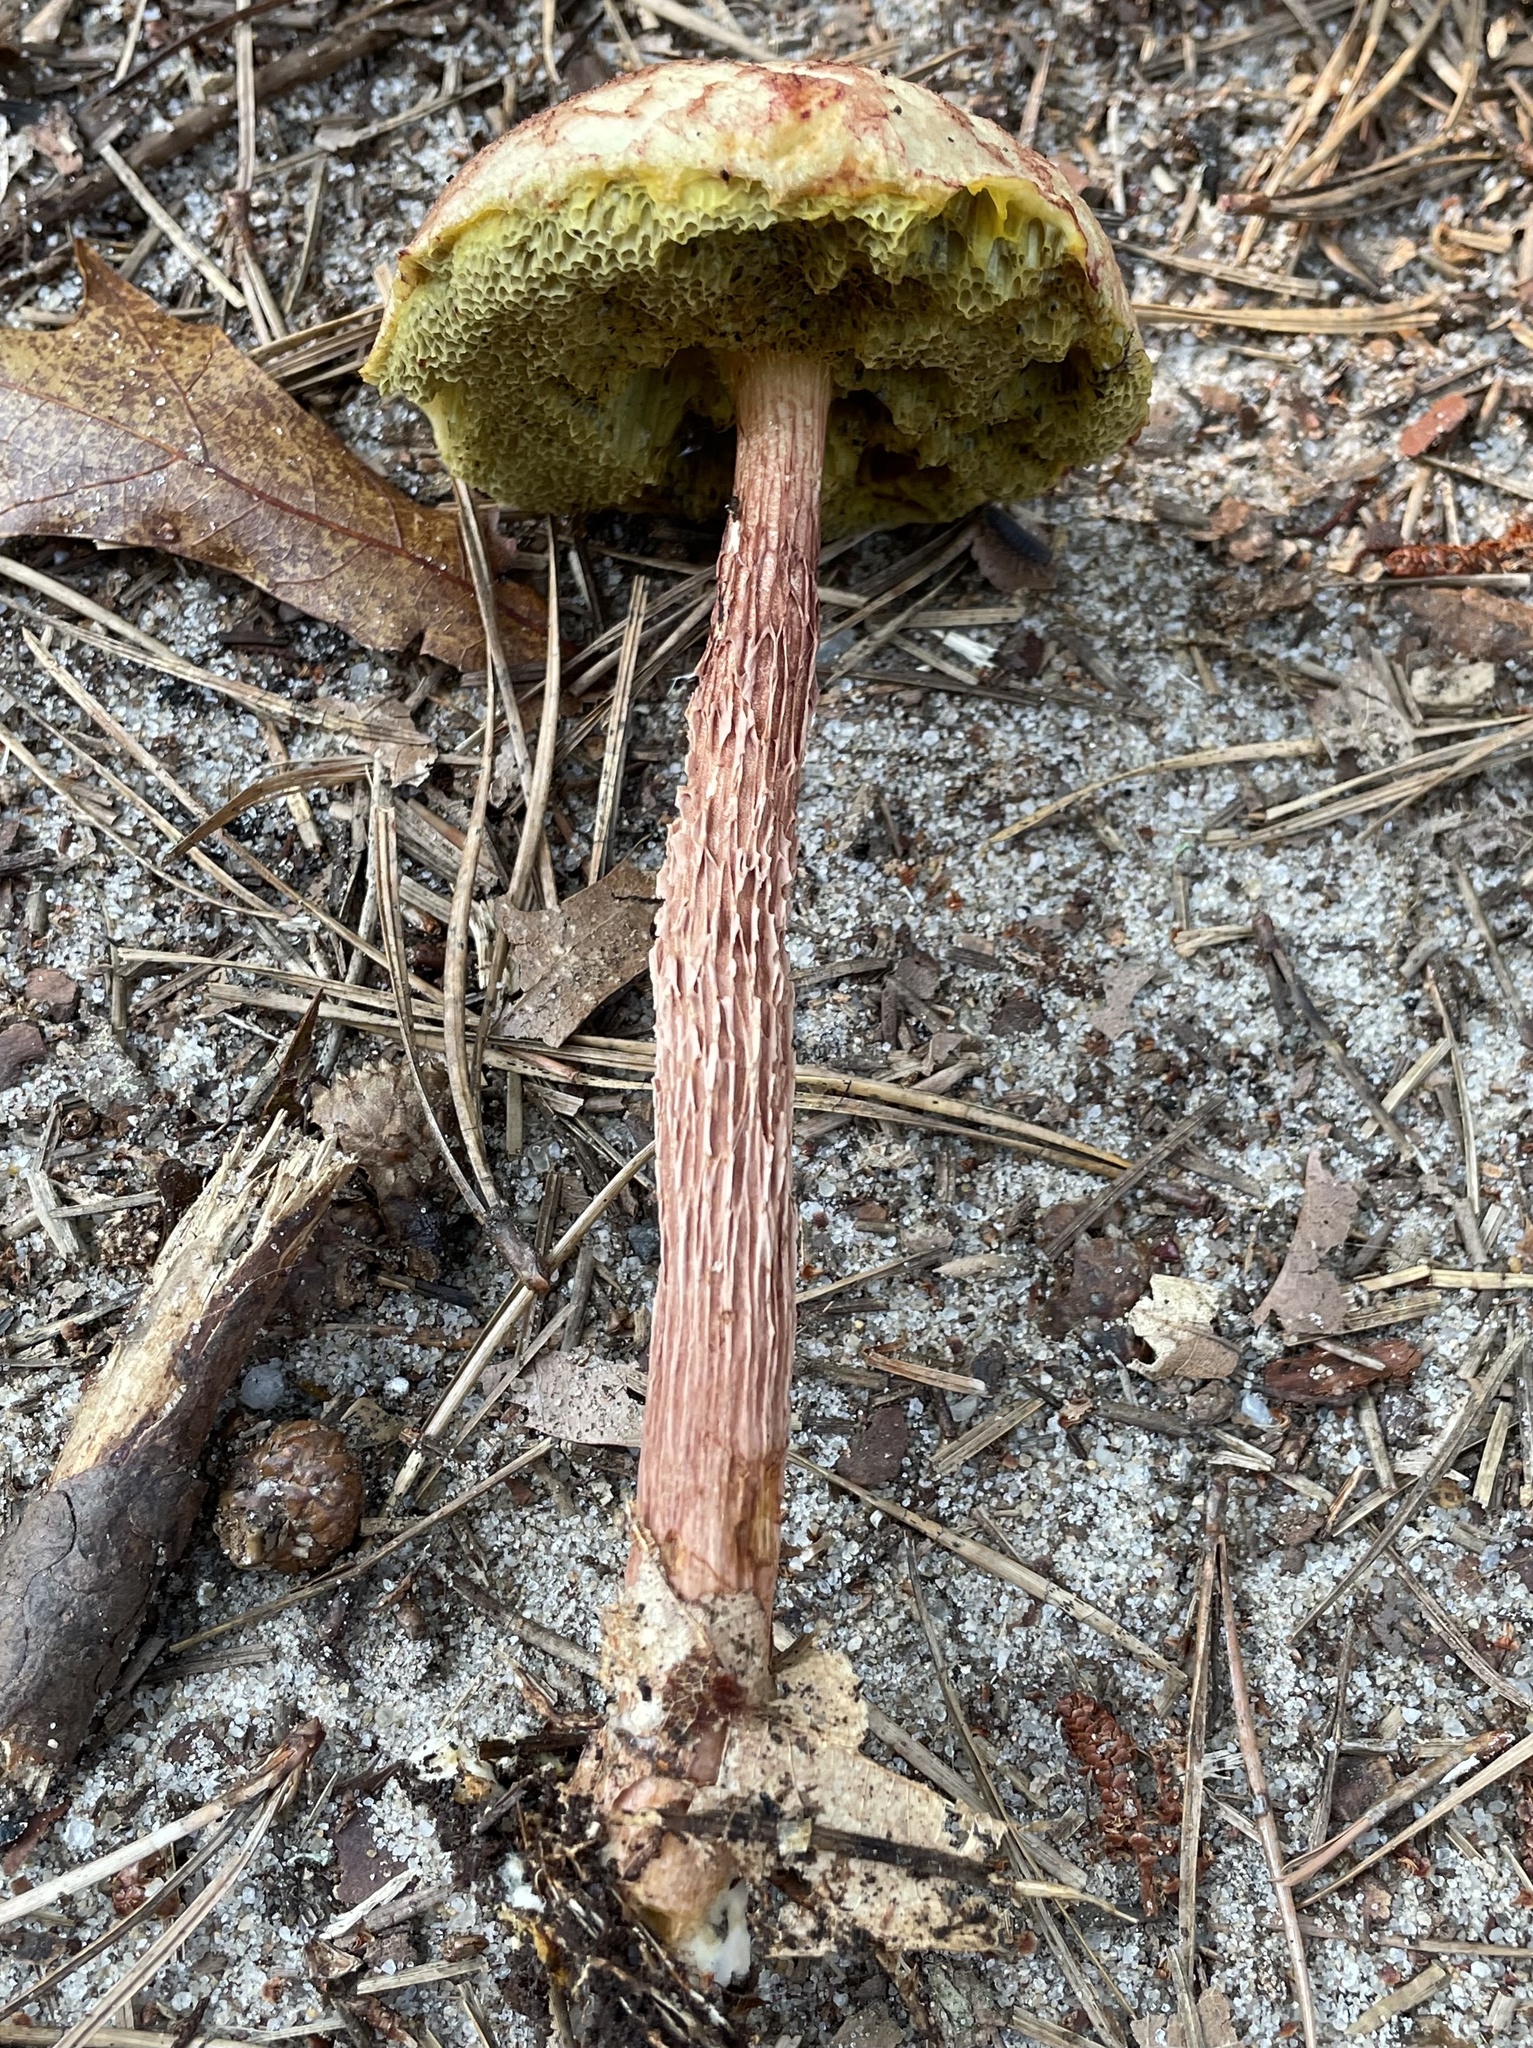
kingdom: Fungi
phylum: Basidiomycota
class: Agaricomycetes
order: Boletales
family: Boletaceae
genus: Aureoboletus
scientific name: Aureoboletus russellii
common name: Russell's bolete
